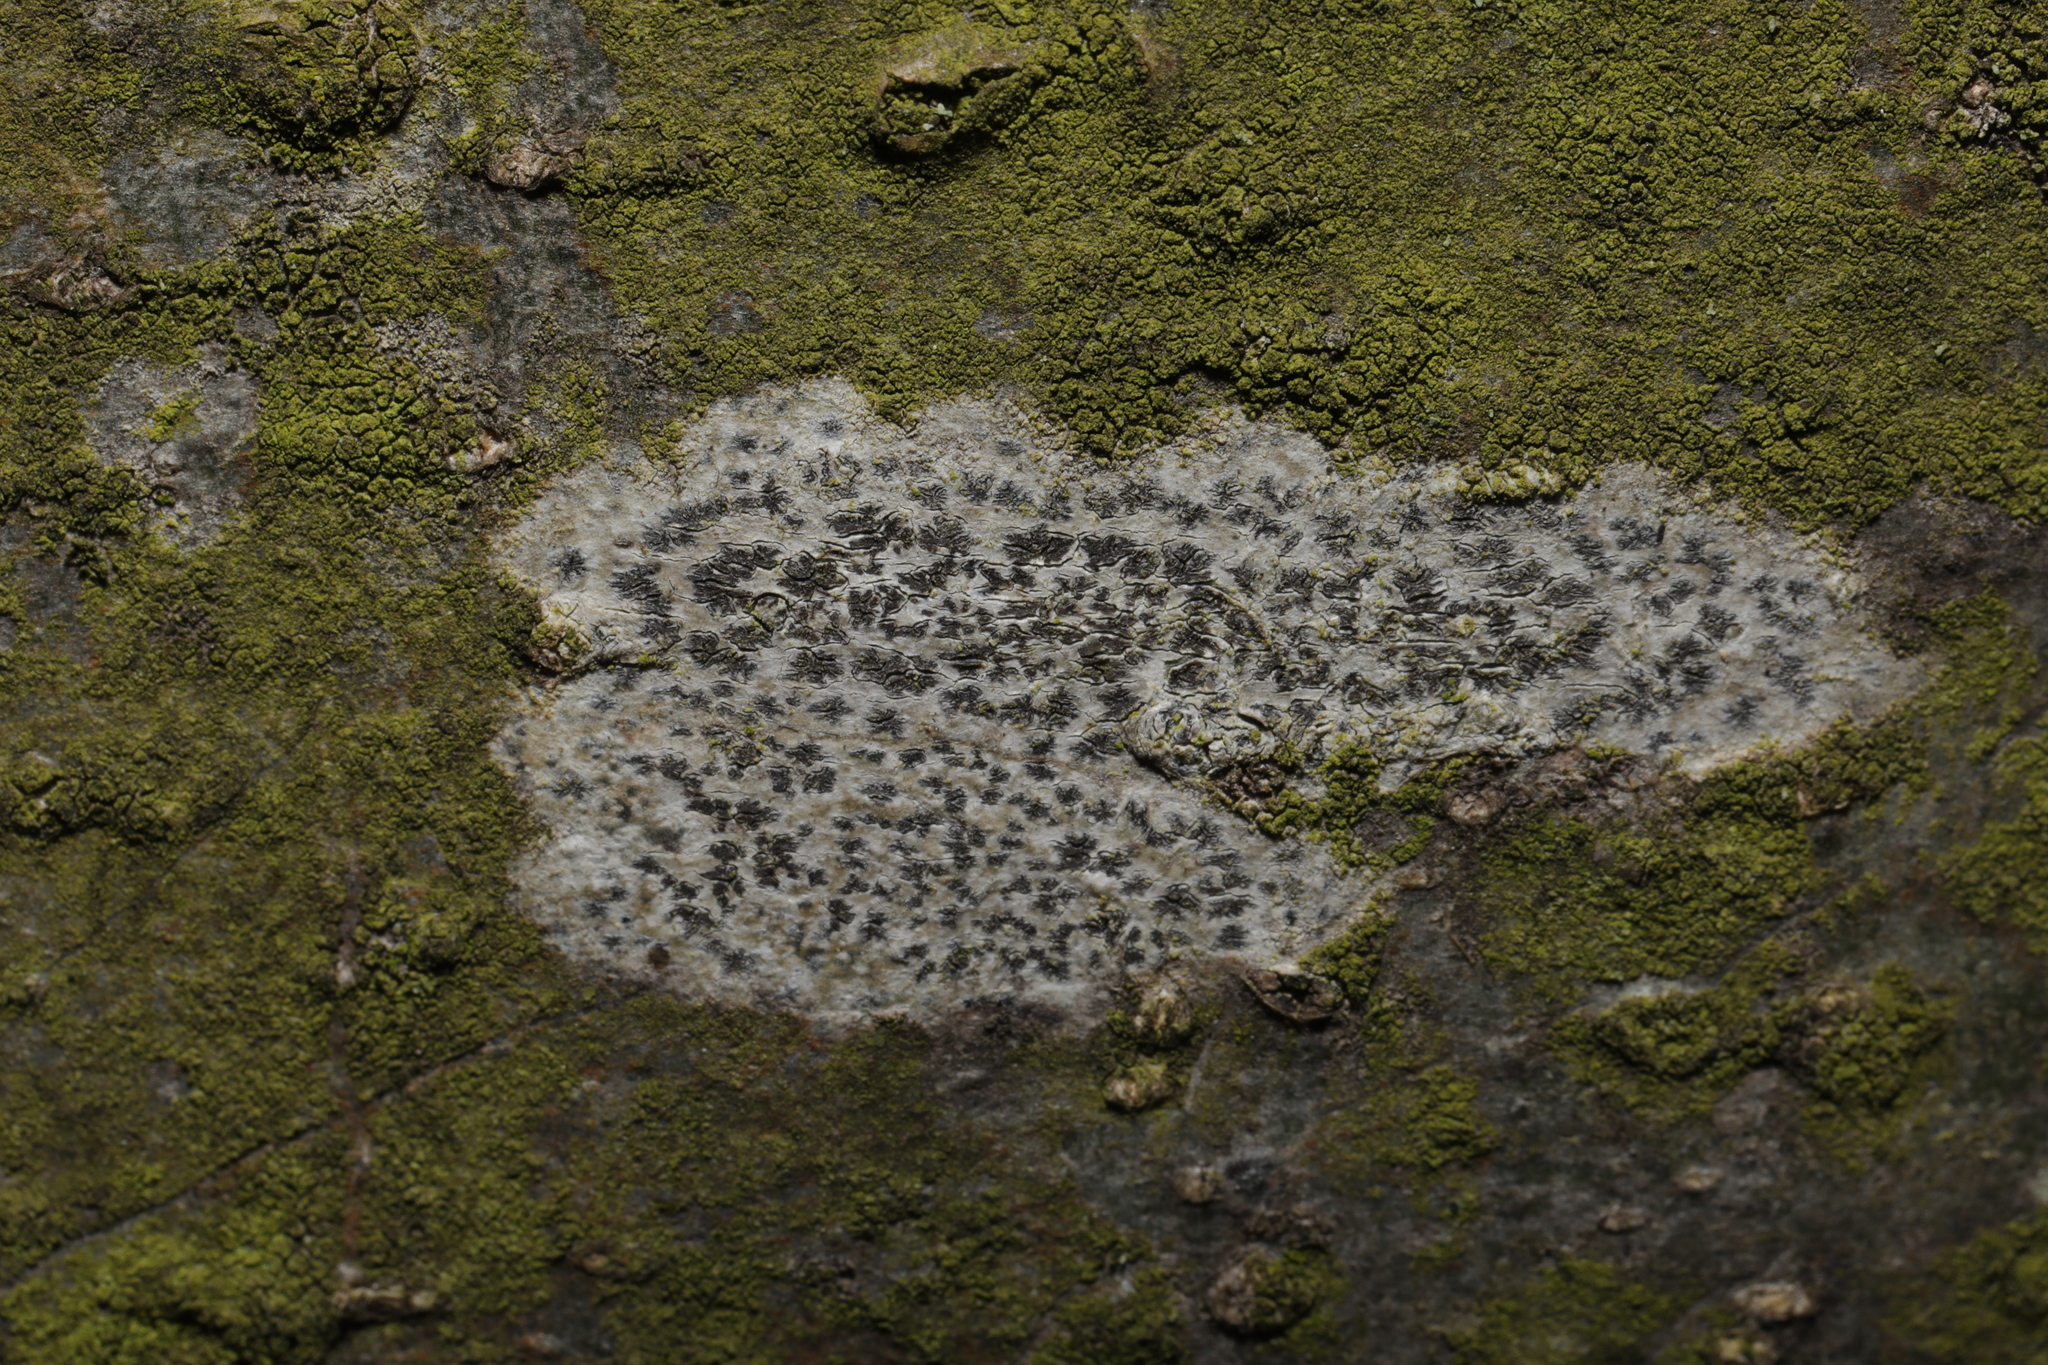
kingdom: Fungi
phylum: Ascomycota
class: Arthoniomycetes
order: Arthoniales
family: Arthoniaceae
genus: Arthonia
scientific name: Arthonia radiata
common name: Asterisk lichen
